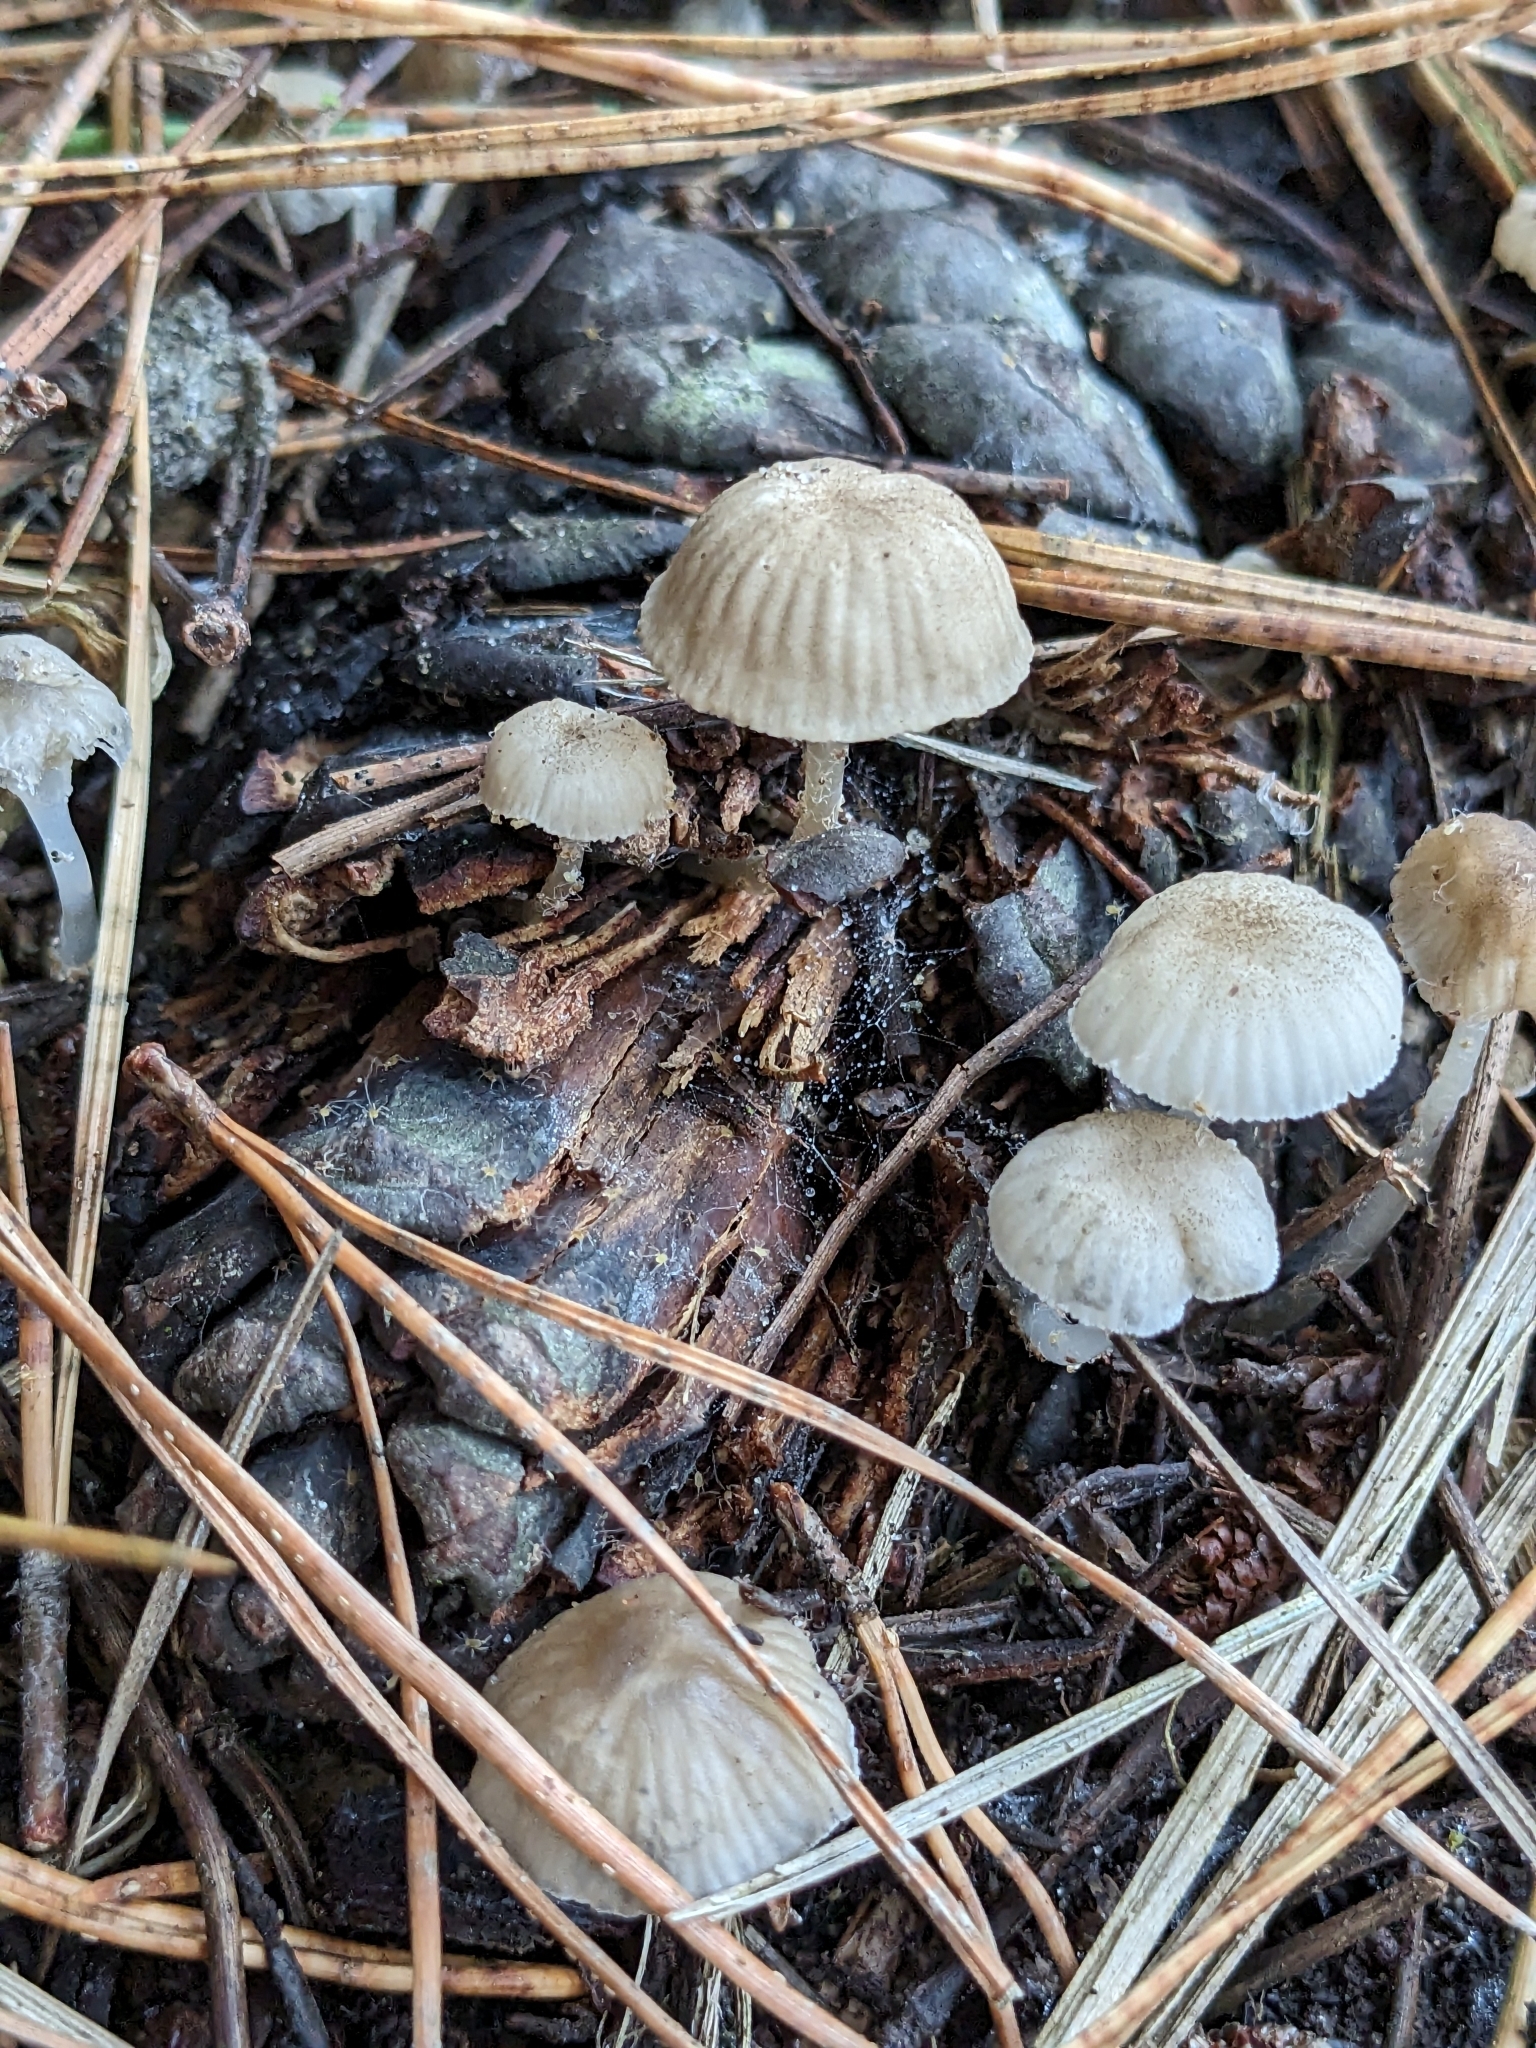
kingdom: Fungi
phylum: Basidiomycota
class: Agaricomycetes
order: Agaricales
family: Mycenaceae
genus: Roridomyces
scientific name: Roridomyces austrororidus
